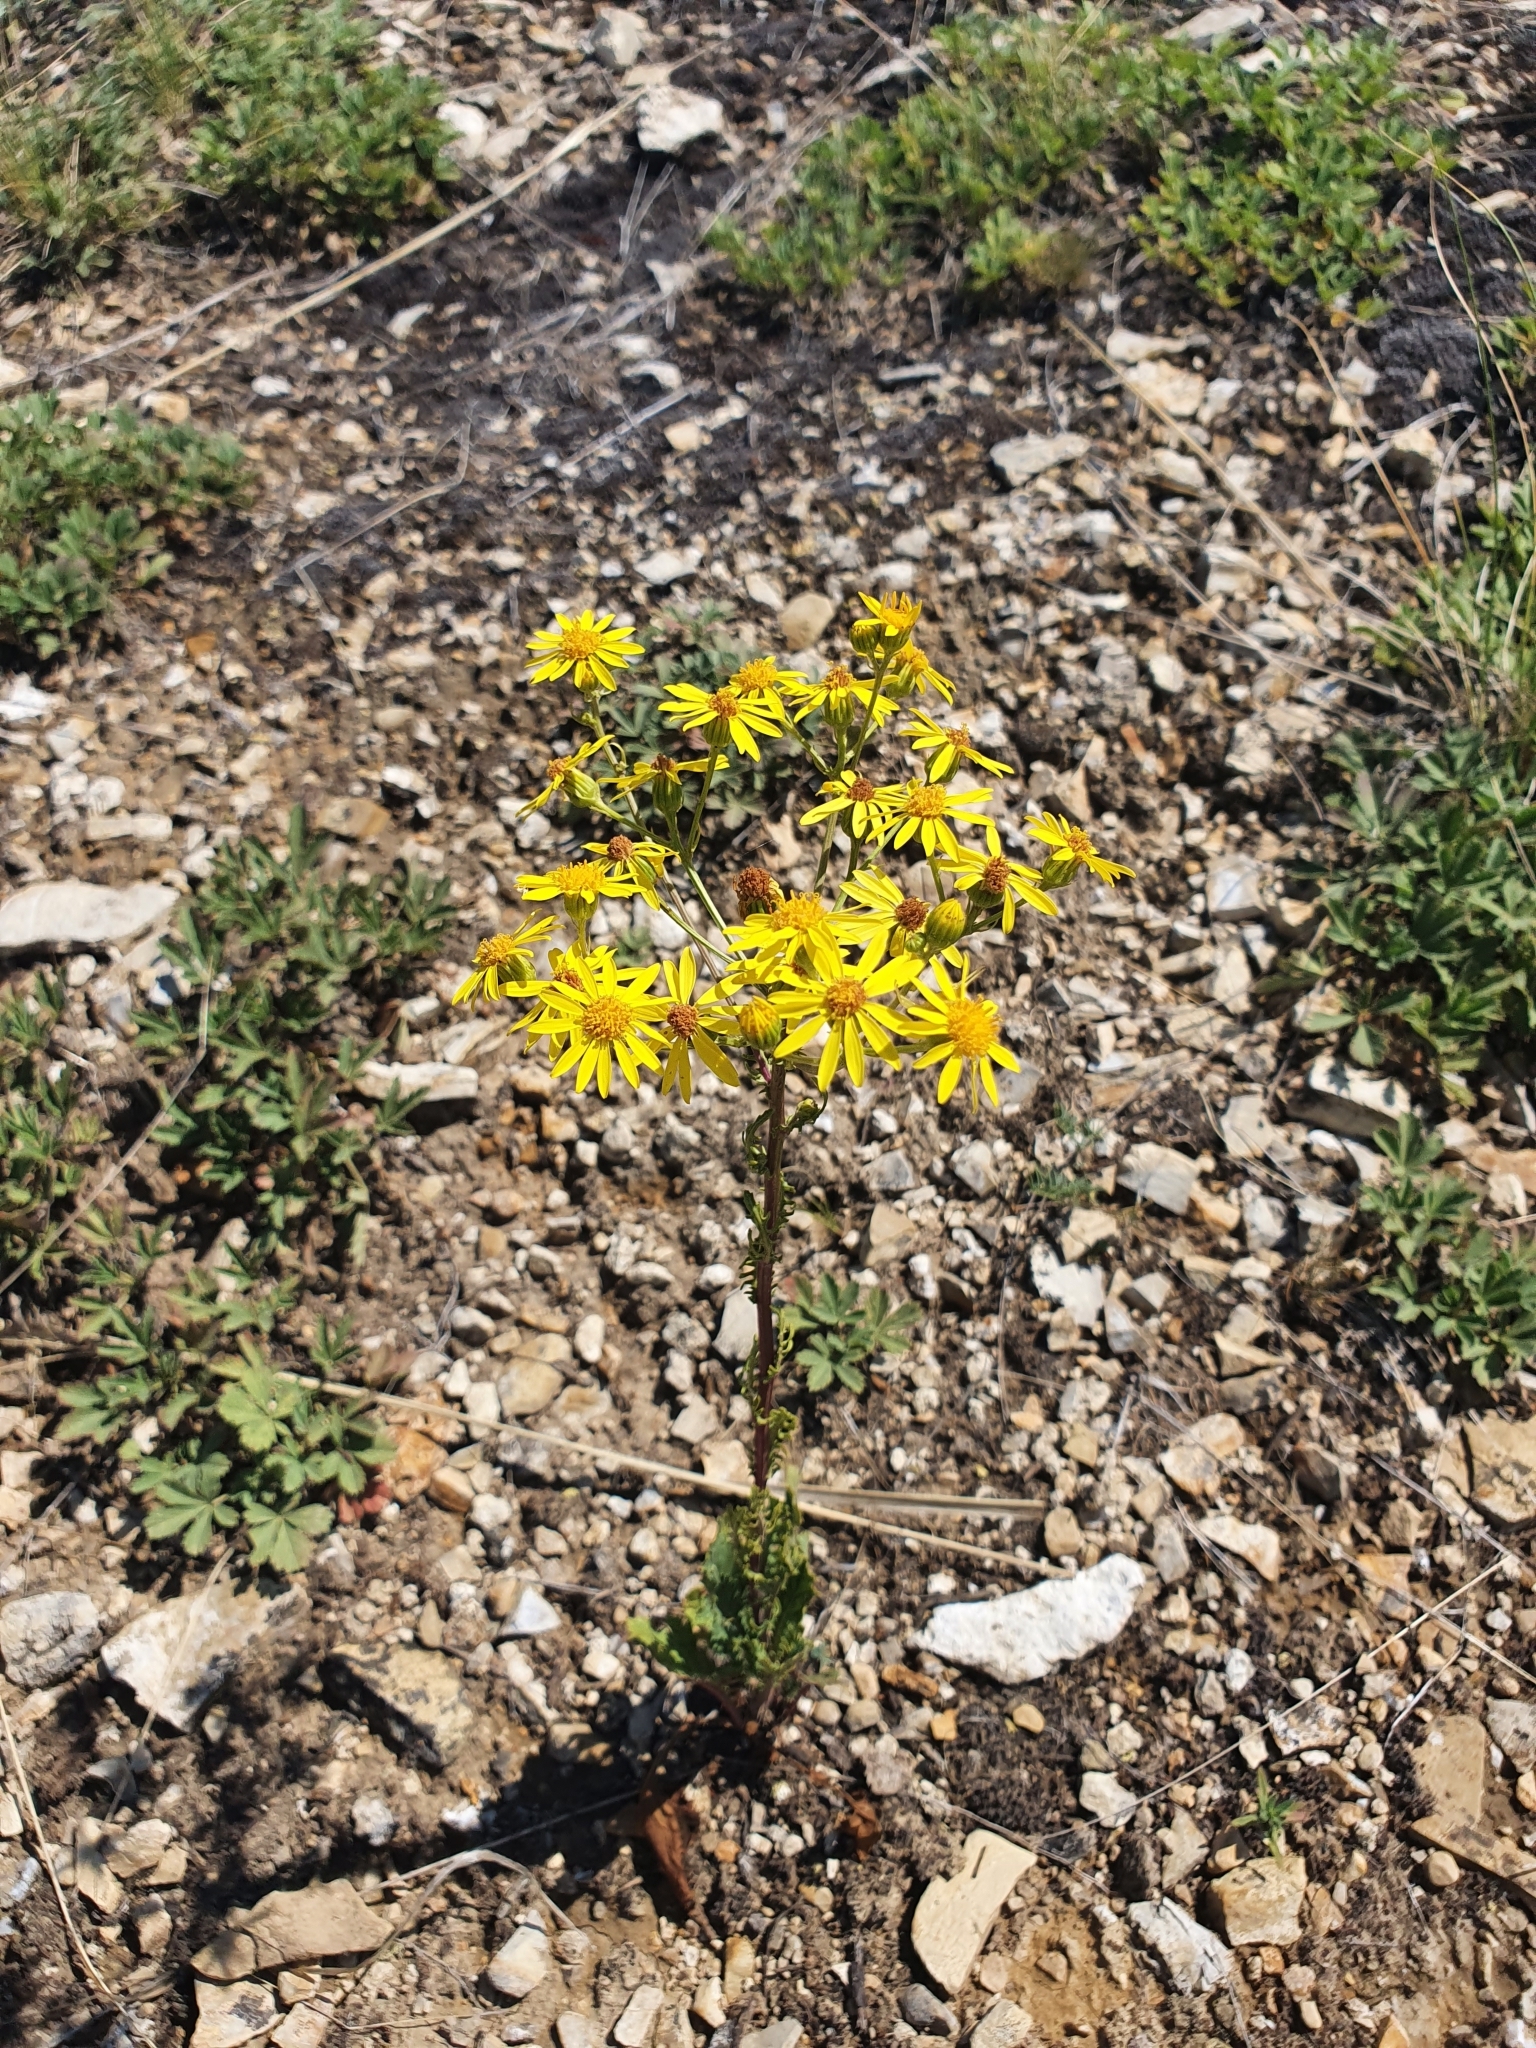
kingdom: Plantae
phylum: Tracheophyta
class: Magnoliopsida
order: Asterales
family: Asteraceae
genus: Jacobaea
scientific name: Jacobaea vulgaris
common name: Stinking willie
